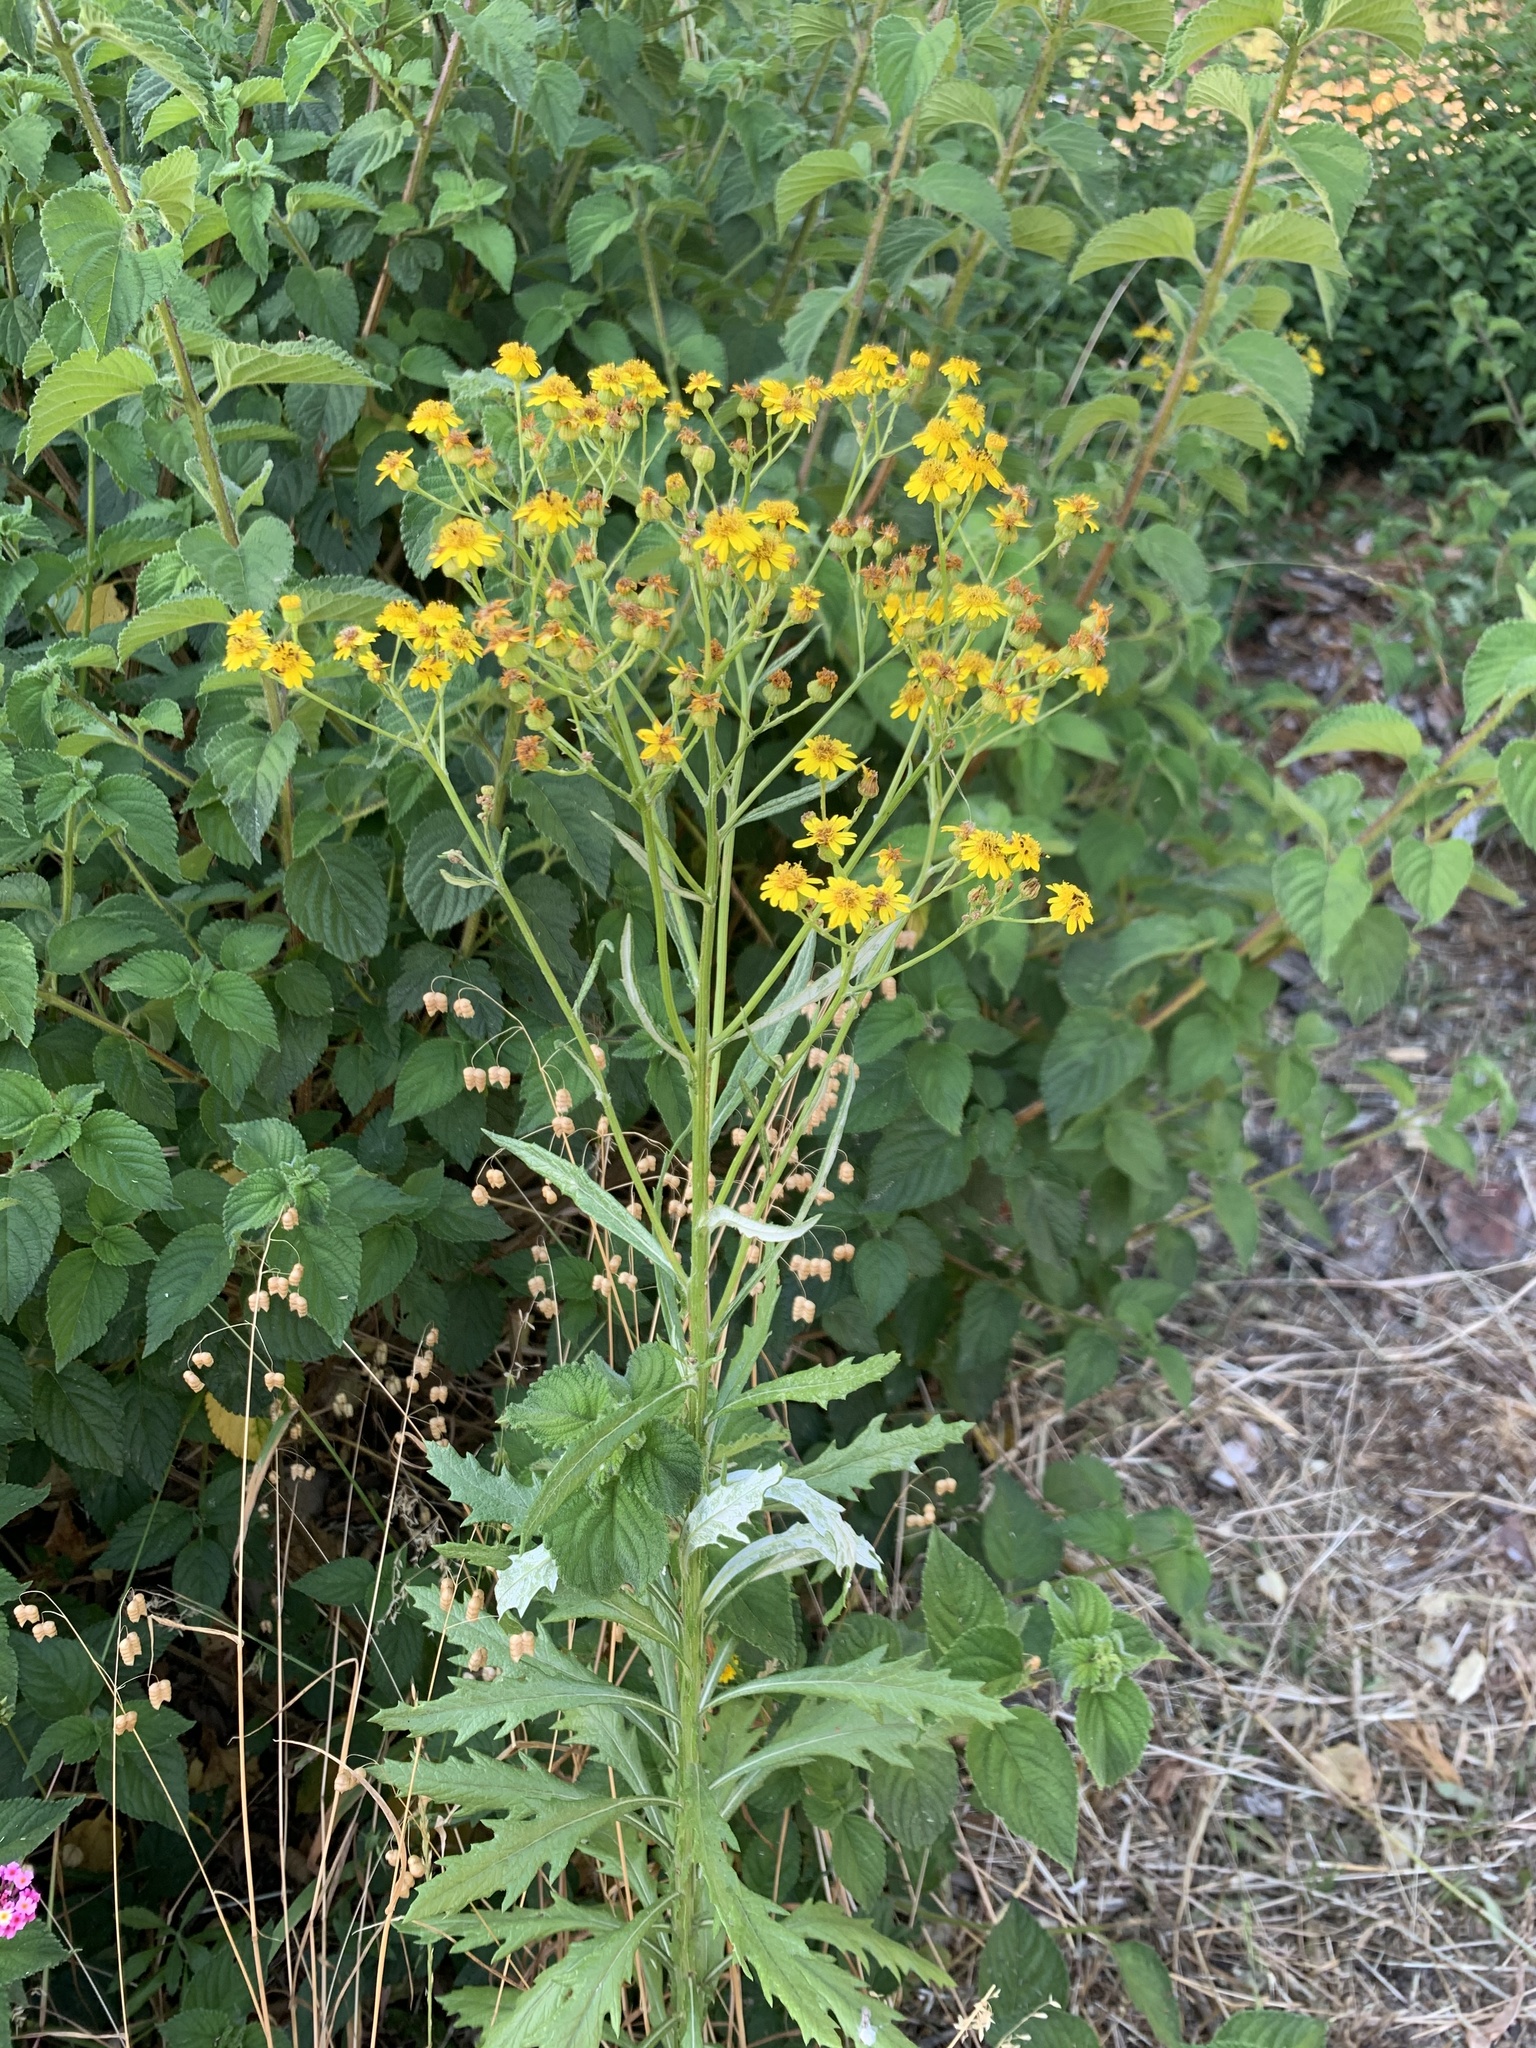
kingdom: Plantae
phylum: Tracheophyta
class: Magnoliopsida
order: Asterales
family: Asteraceae
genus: Senecio
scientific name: Senecio pterophorus
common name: Shoddy ragwort
